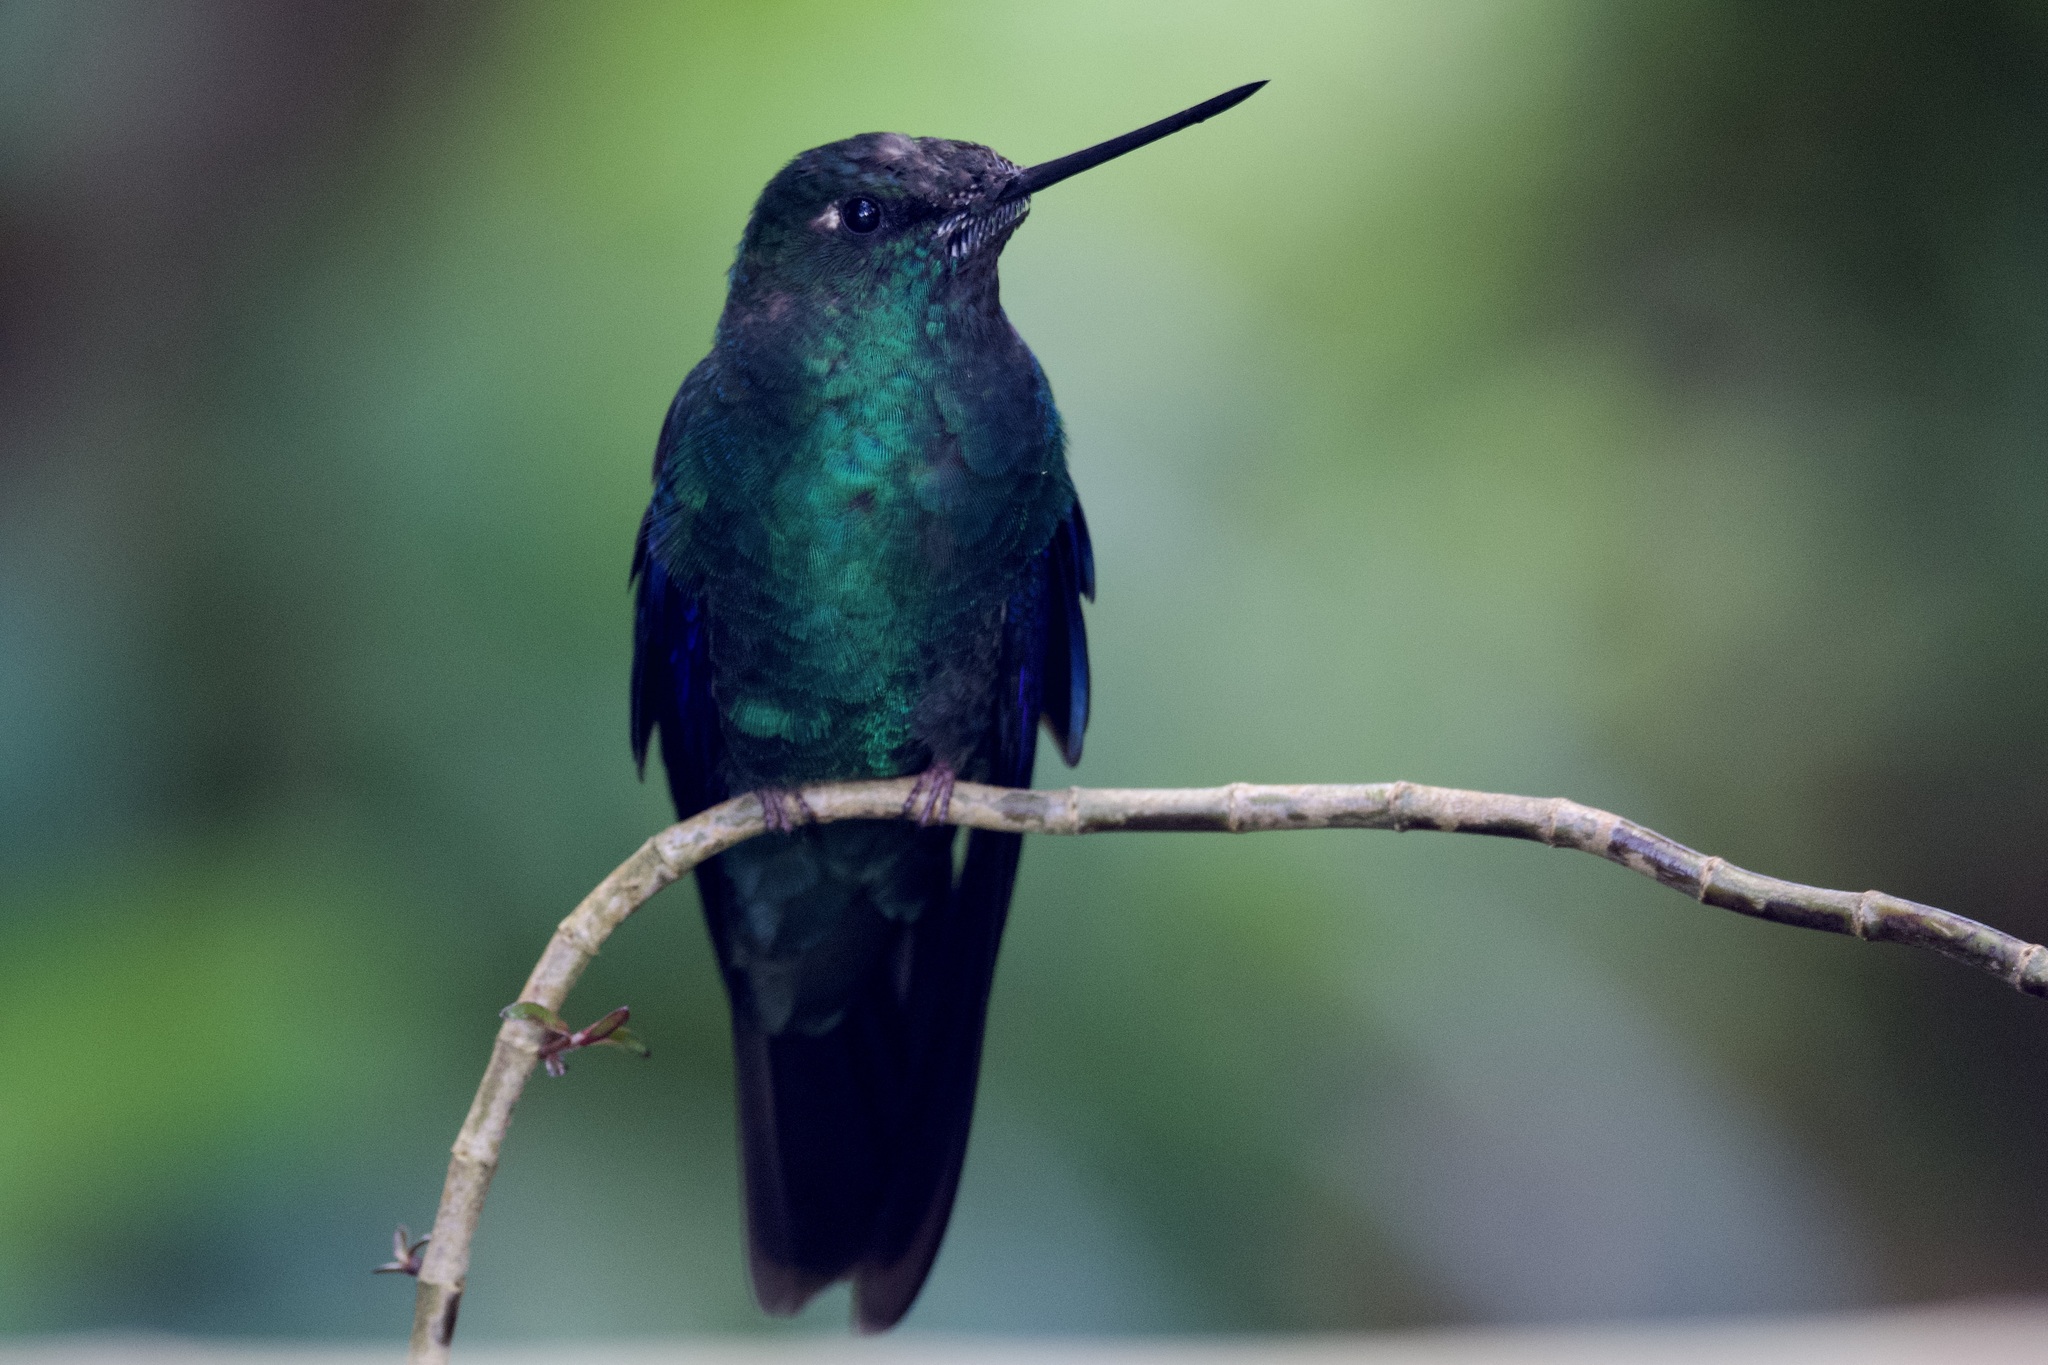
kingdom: Animalia
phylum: Chordata
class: Aves
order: Apodiformes
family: Trochilidae
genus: Pterophanes
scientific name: Pterophanes cyanopterus
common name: Great sapphirewing
